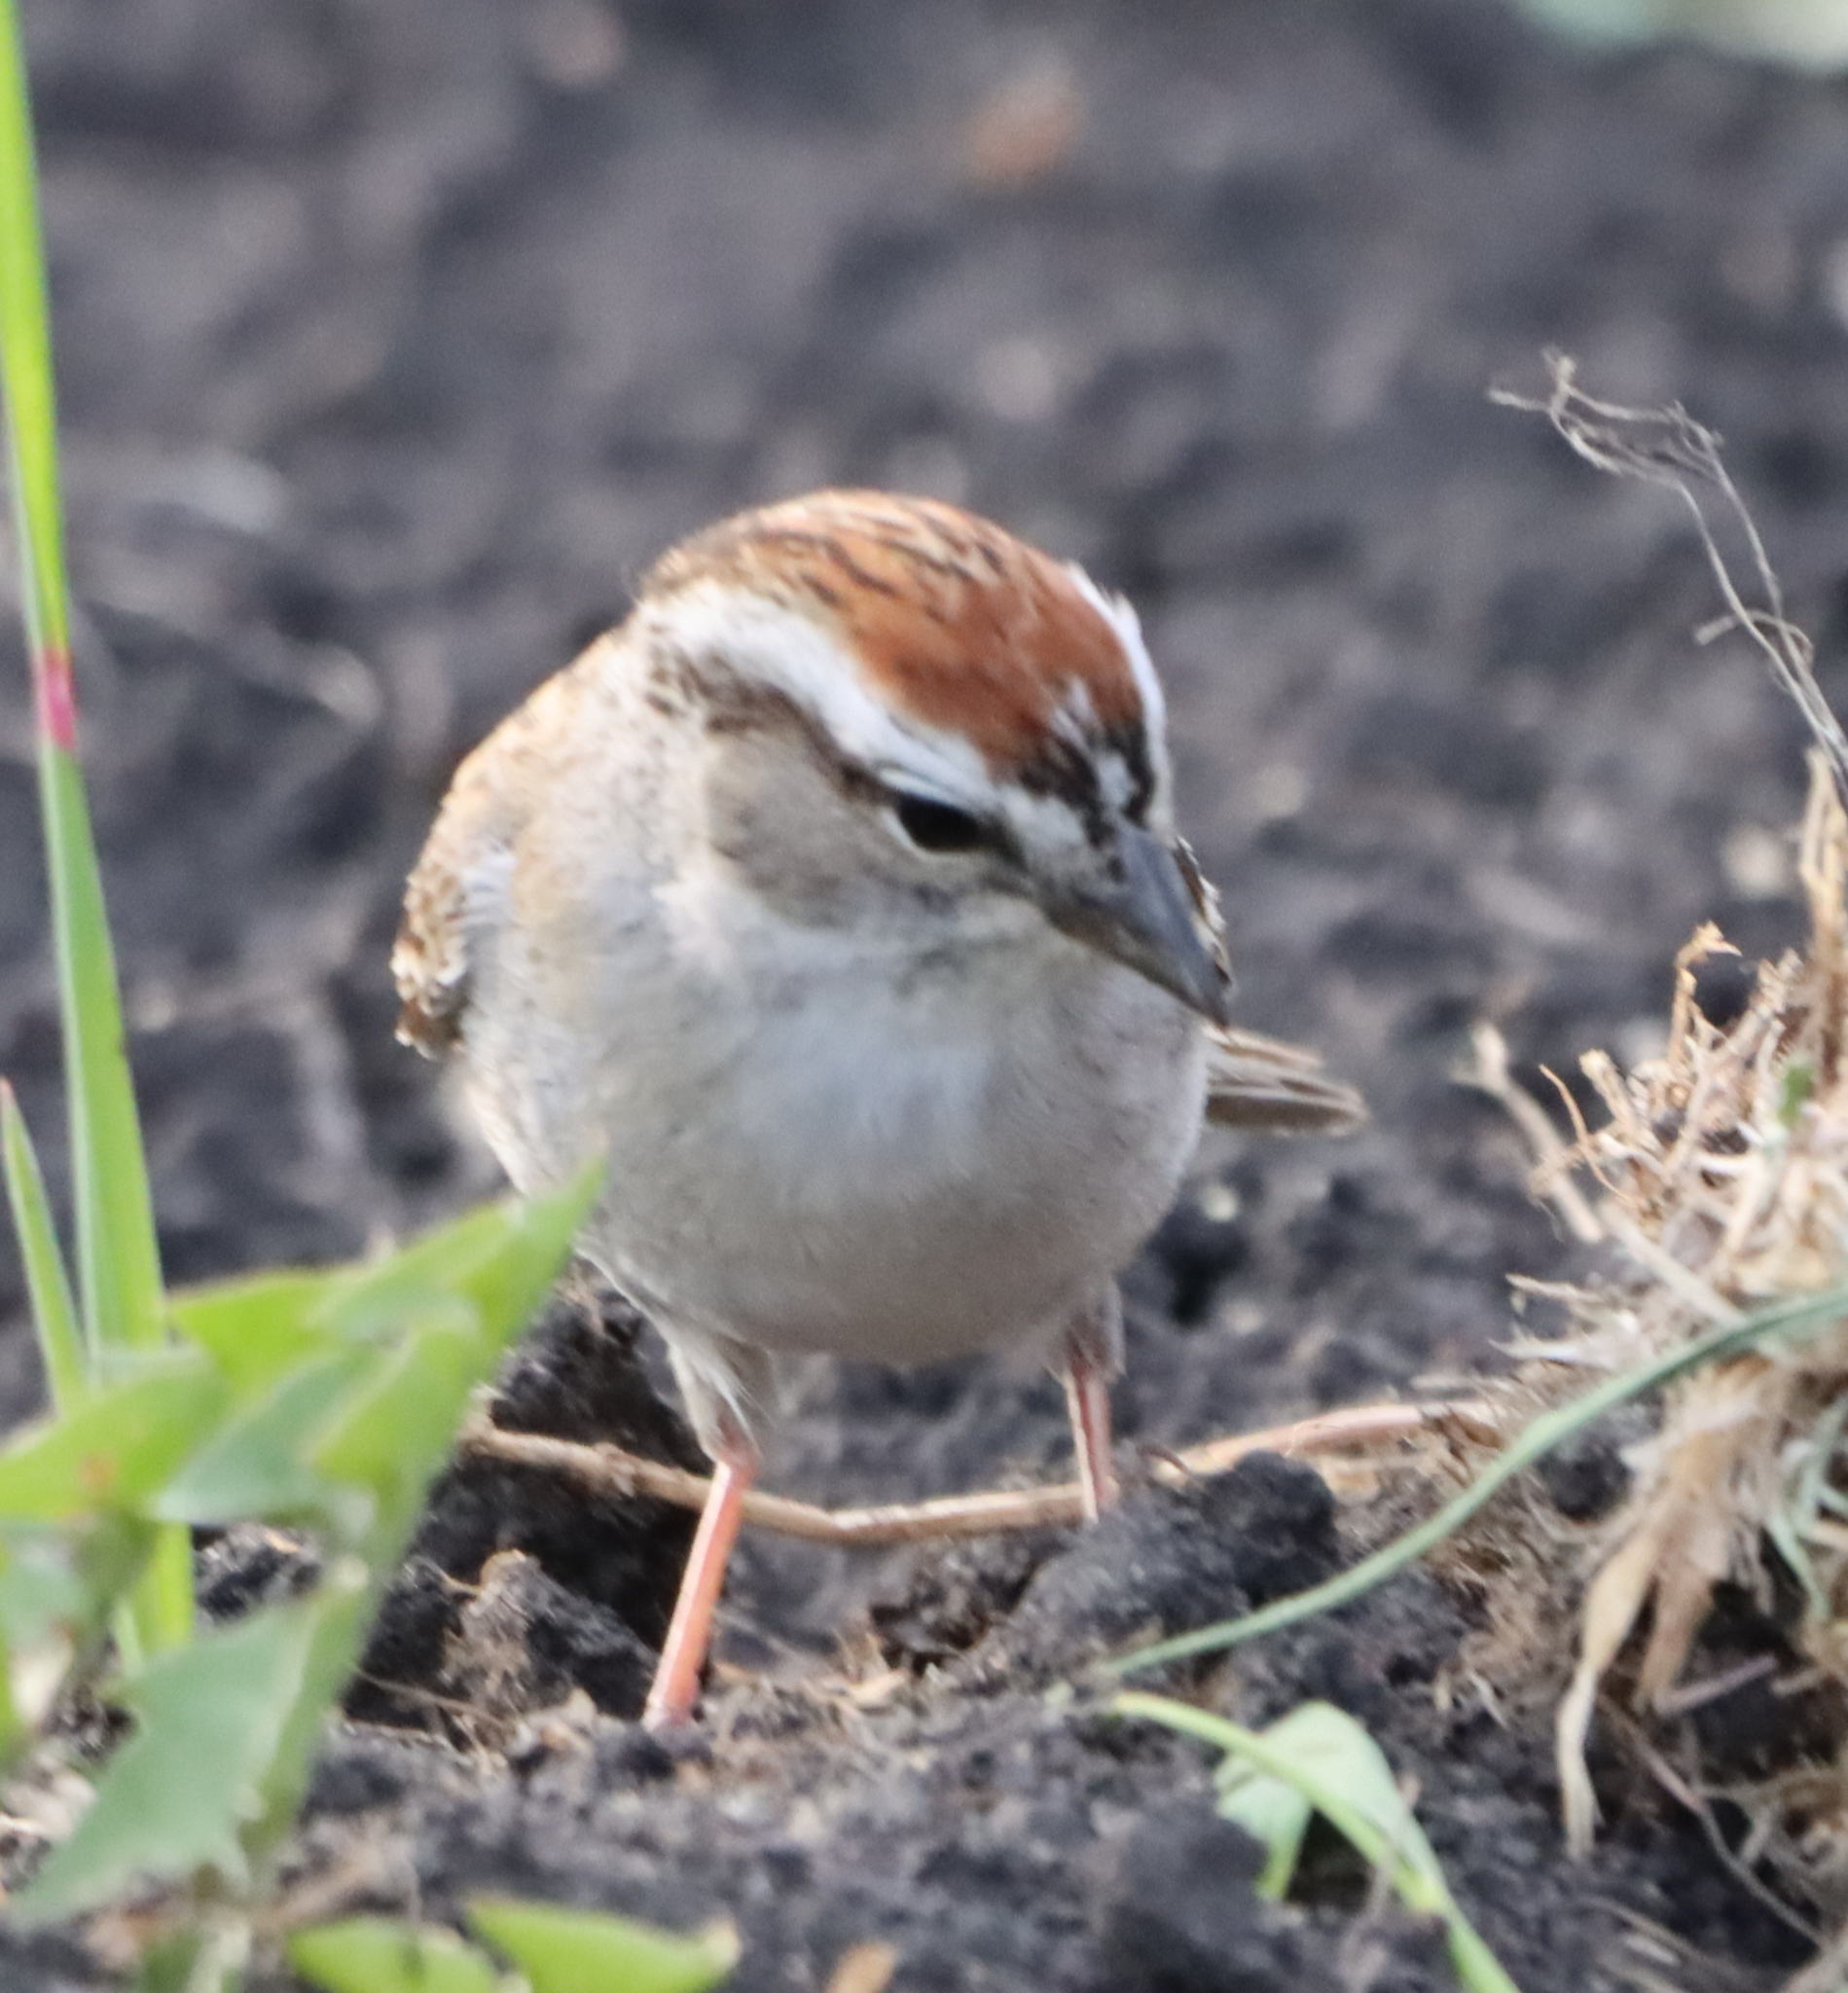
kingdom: Animalia
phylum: Chordata
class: Aves
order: Passeriformes
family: Passerellidae
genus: Spizella
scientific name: Spizella passerina
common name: Chipping sparrow
